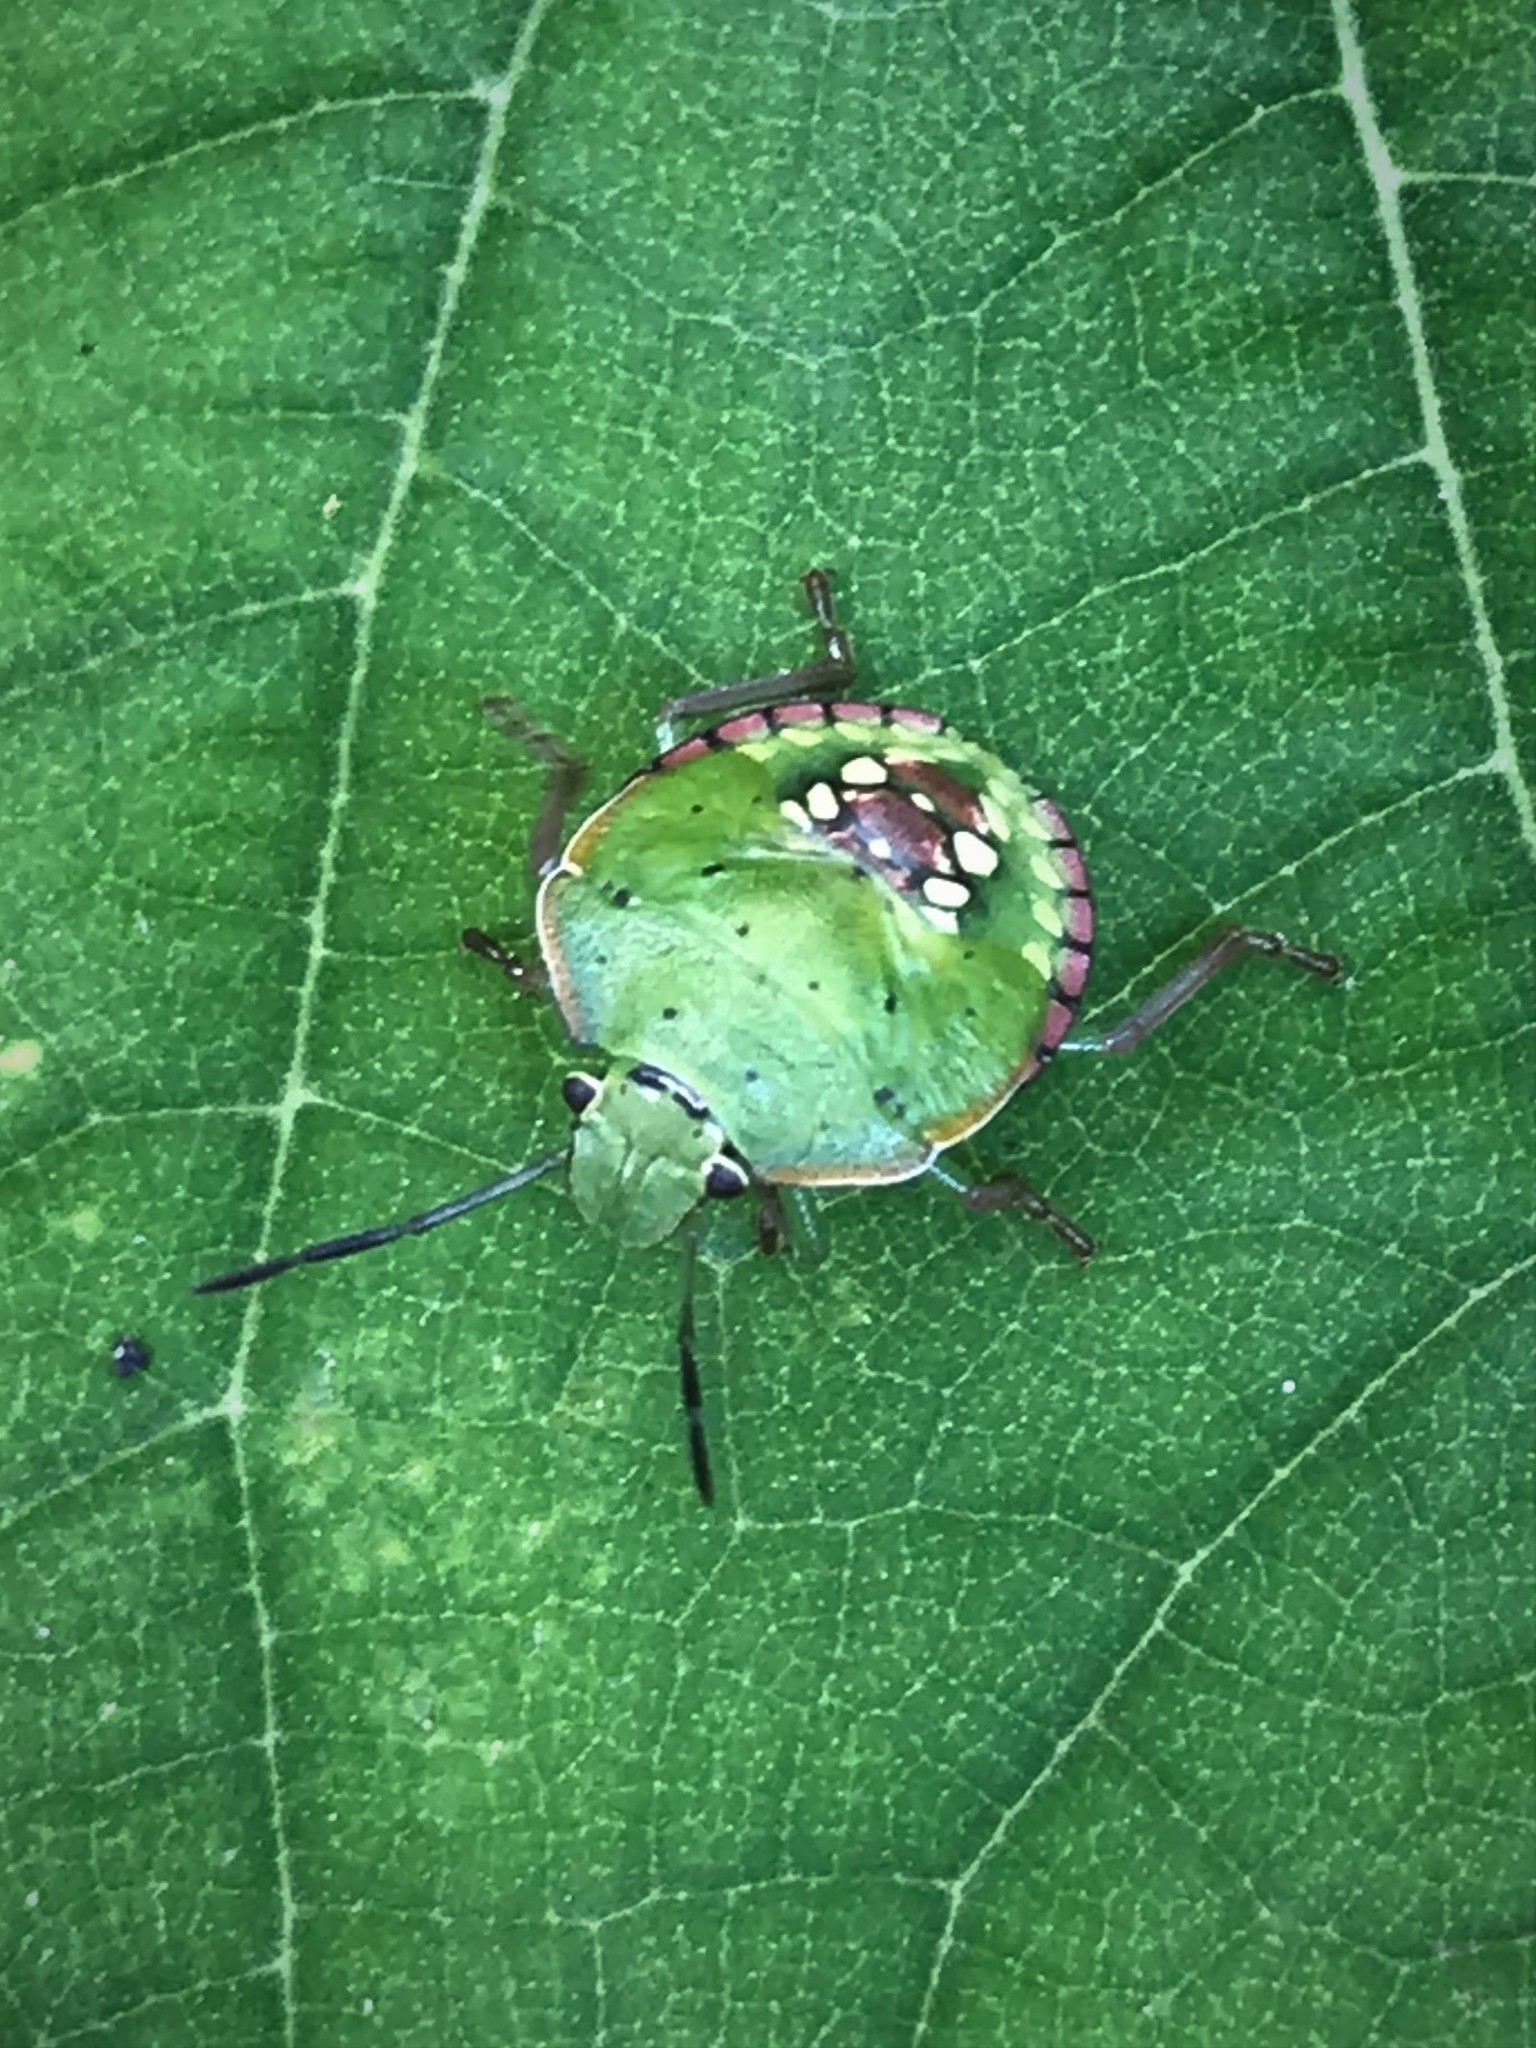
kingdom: Animalia
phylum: Arthropoda
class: Insecta
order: Hemiptera
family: Pentatomidae
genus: Nezara
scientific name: Nezara viridula
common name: Southern green stink bug
